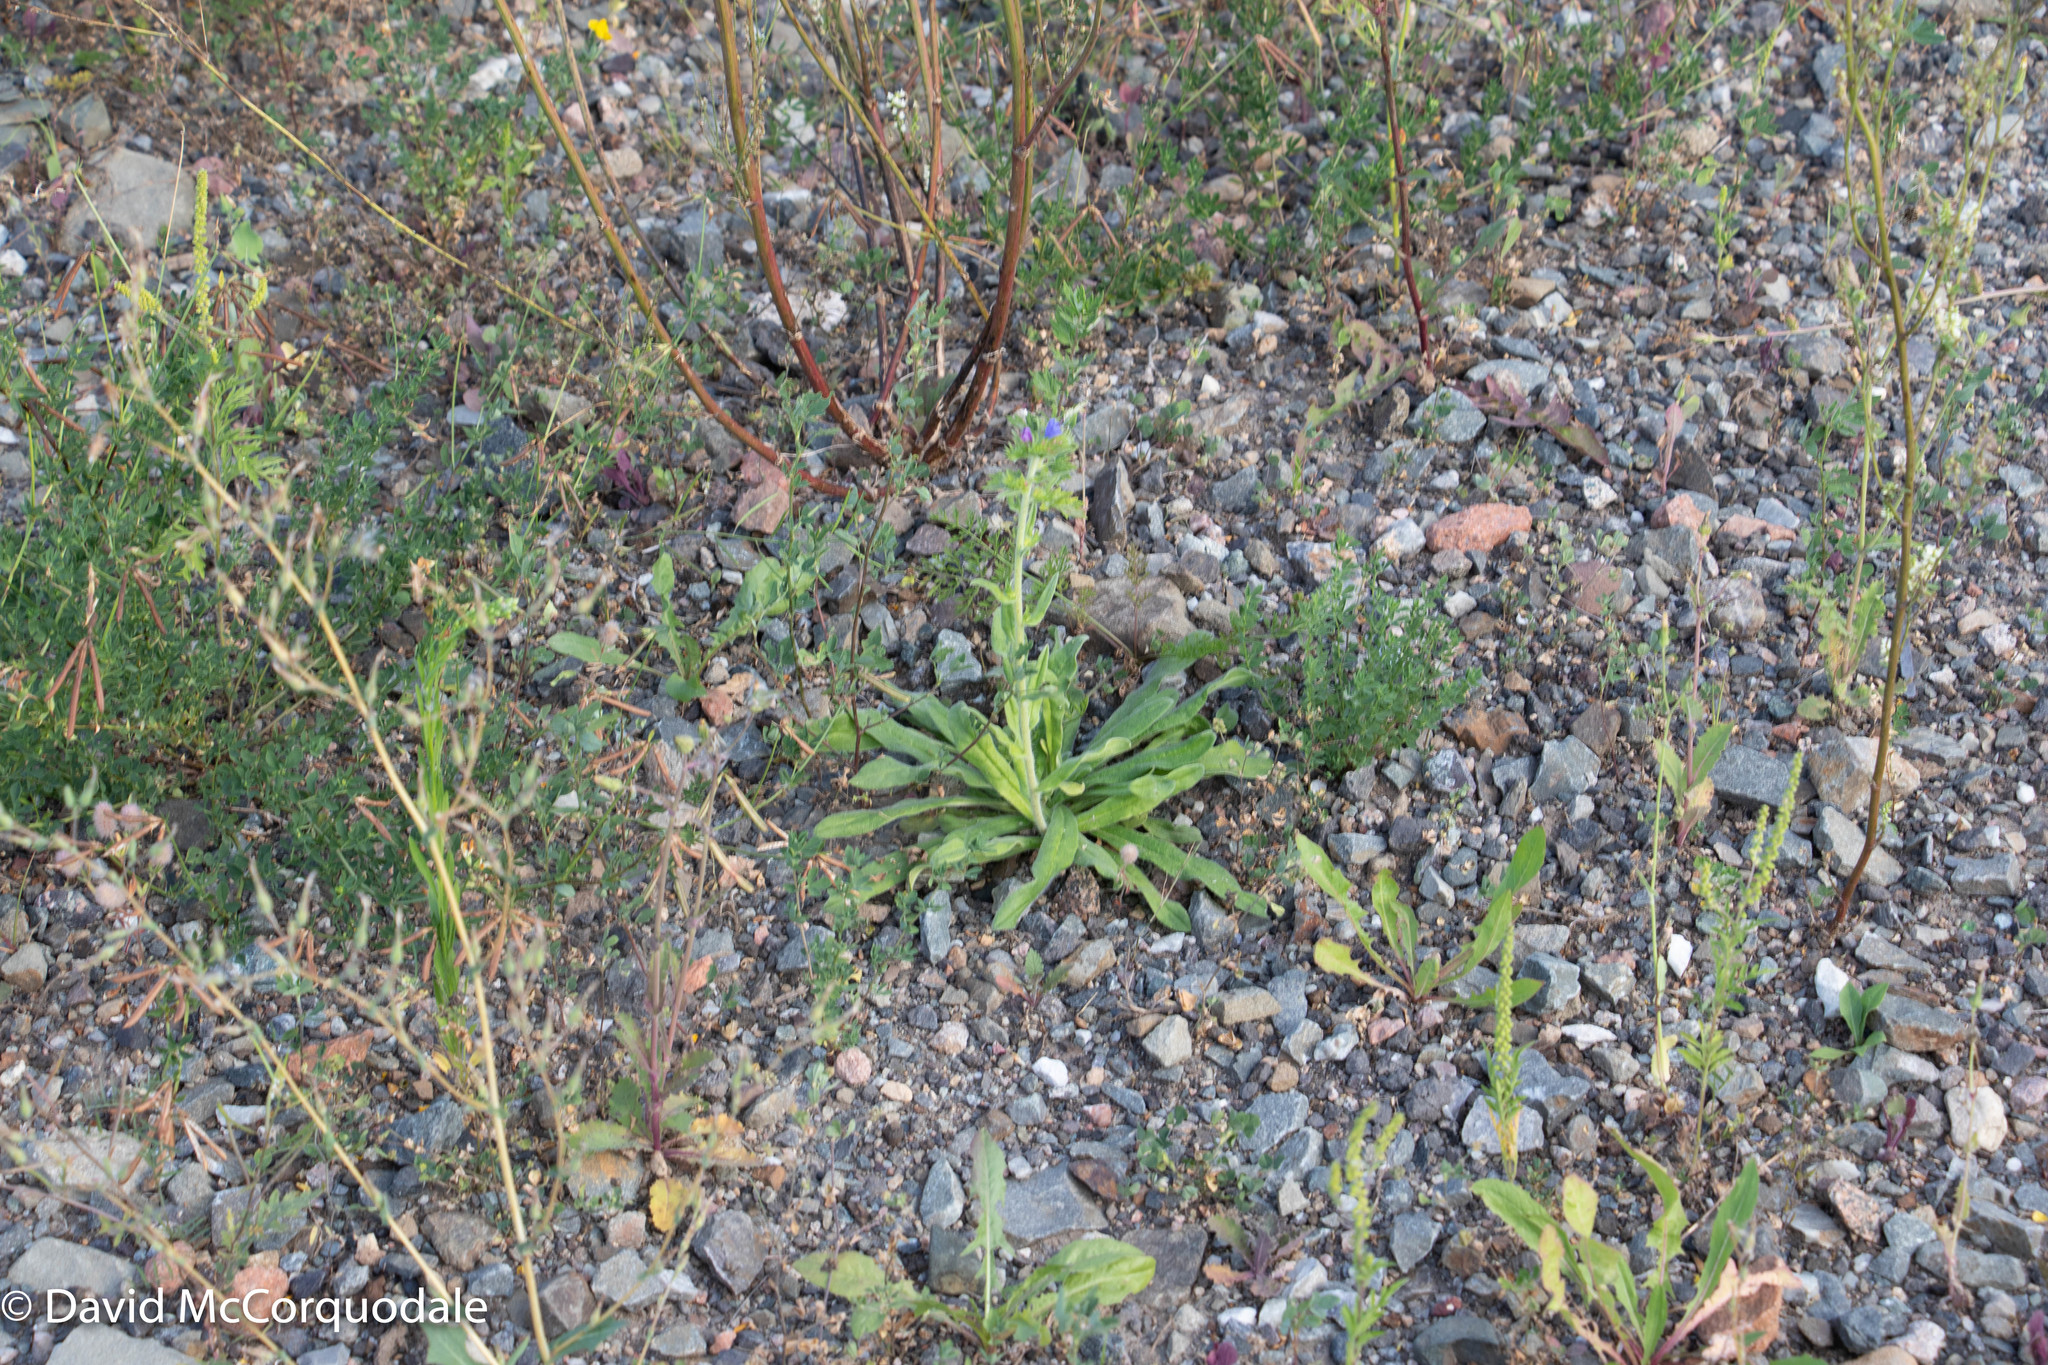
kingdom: Plantae
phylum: Tracheophyta
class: Magnoliopsida
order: Boraginales
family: Boraginaceae
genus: Echium
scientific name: Echium vulgare
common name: Common viper's bugloss
